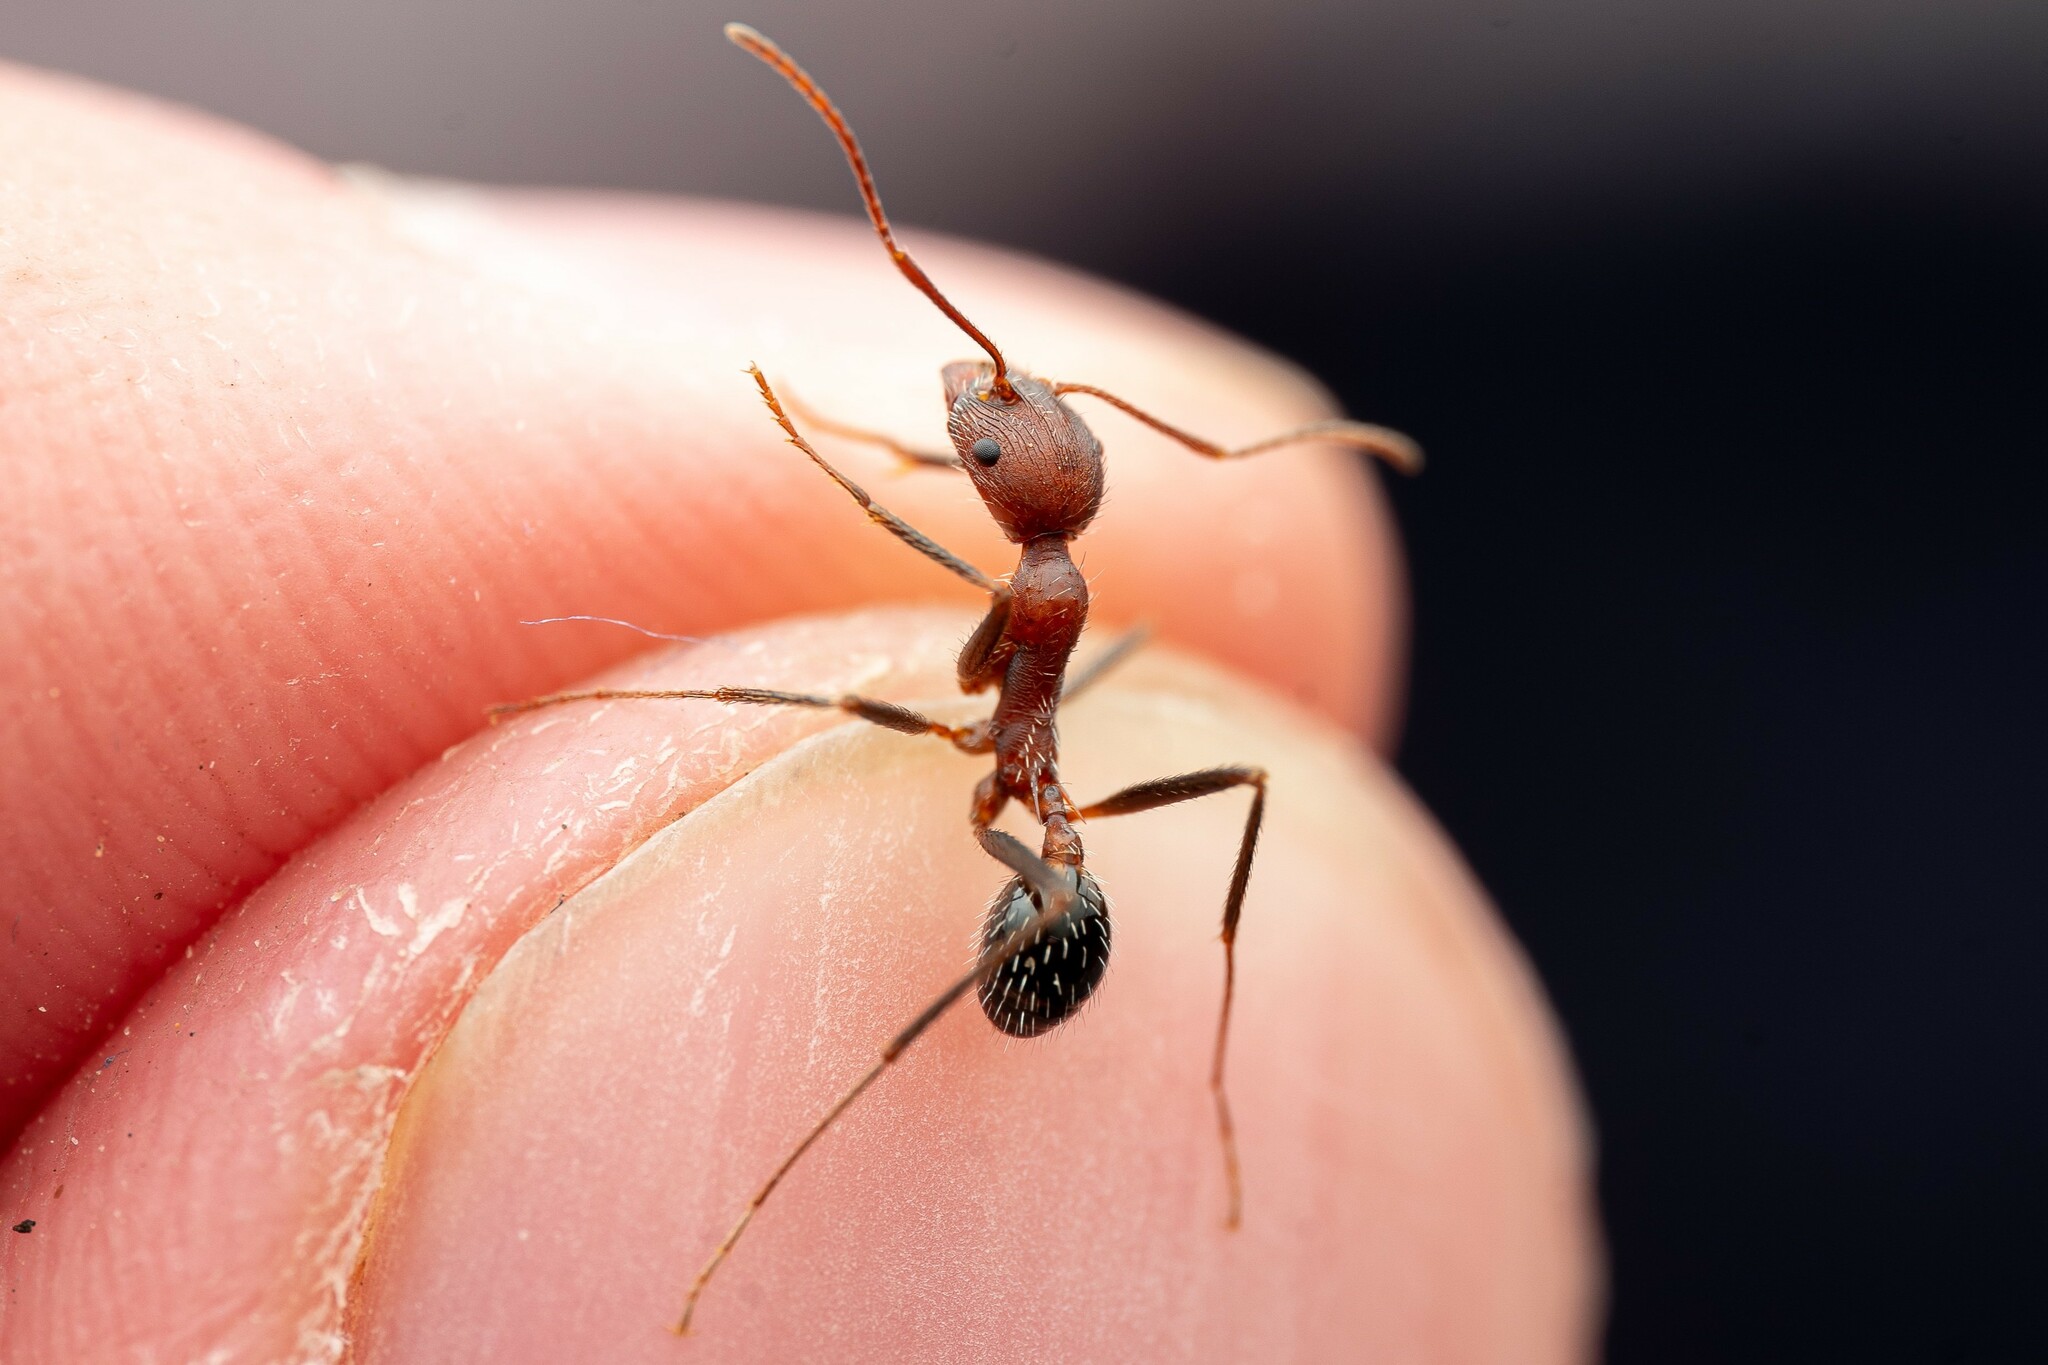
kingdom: Animalia
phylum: Arthropoda
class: Insecta
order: Hymenoptera
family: Formicidae
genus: Novomessor
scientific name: Novomessor albisetosa
